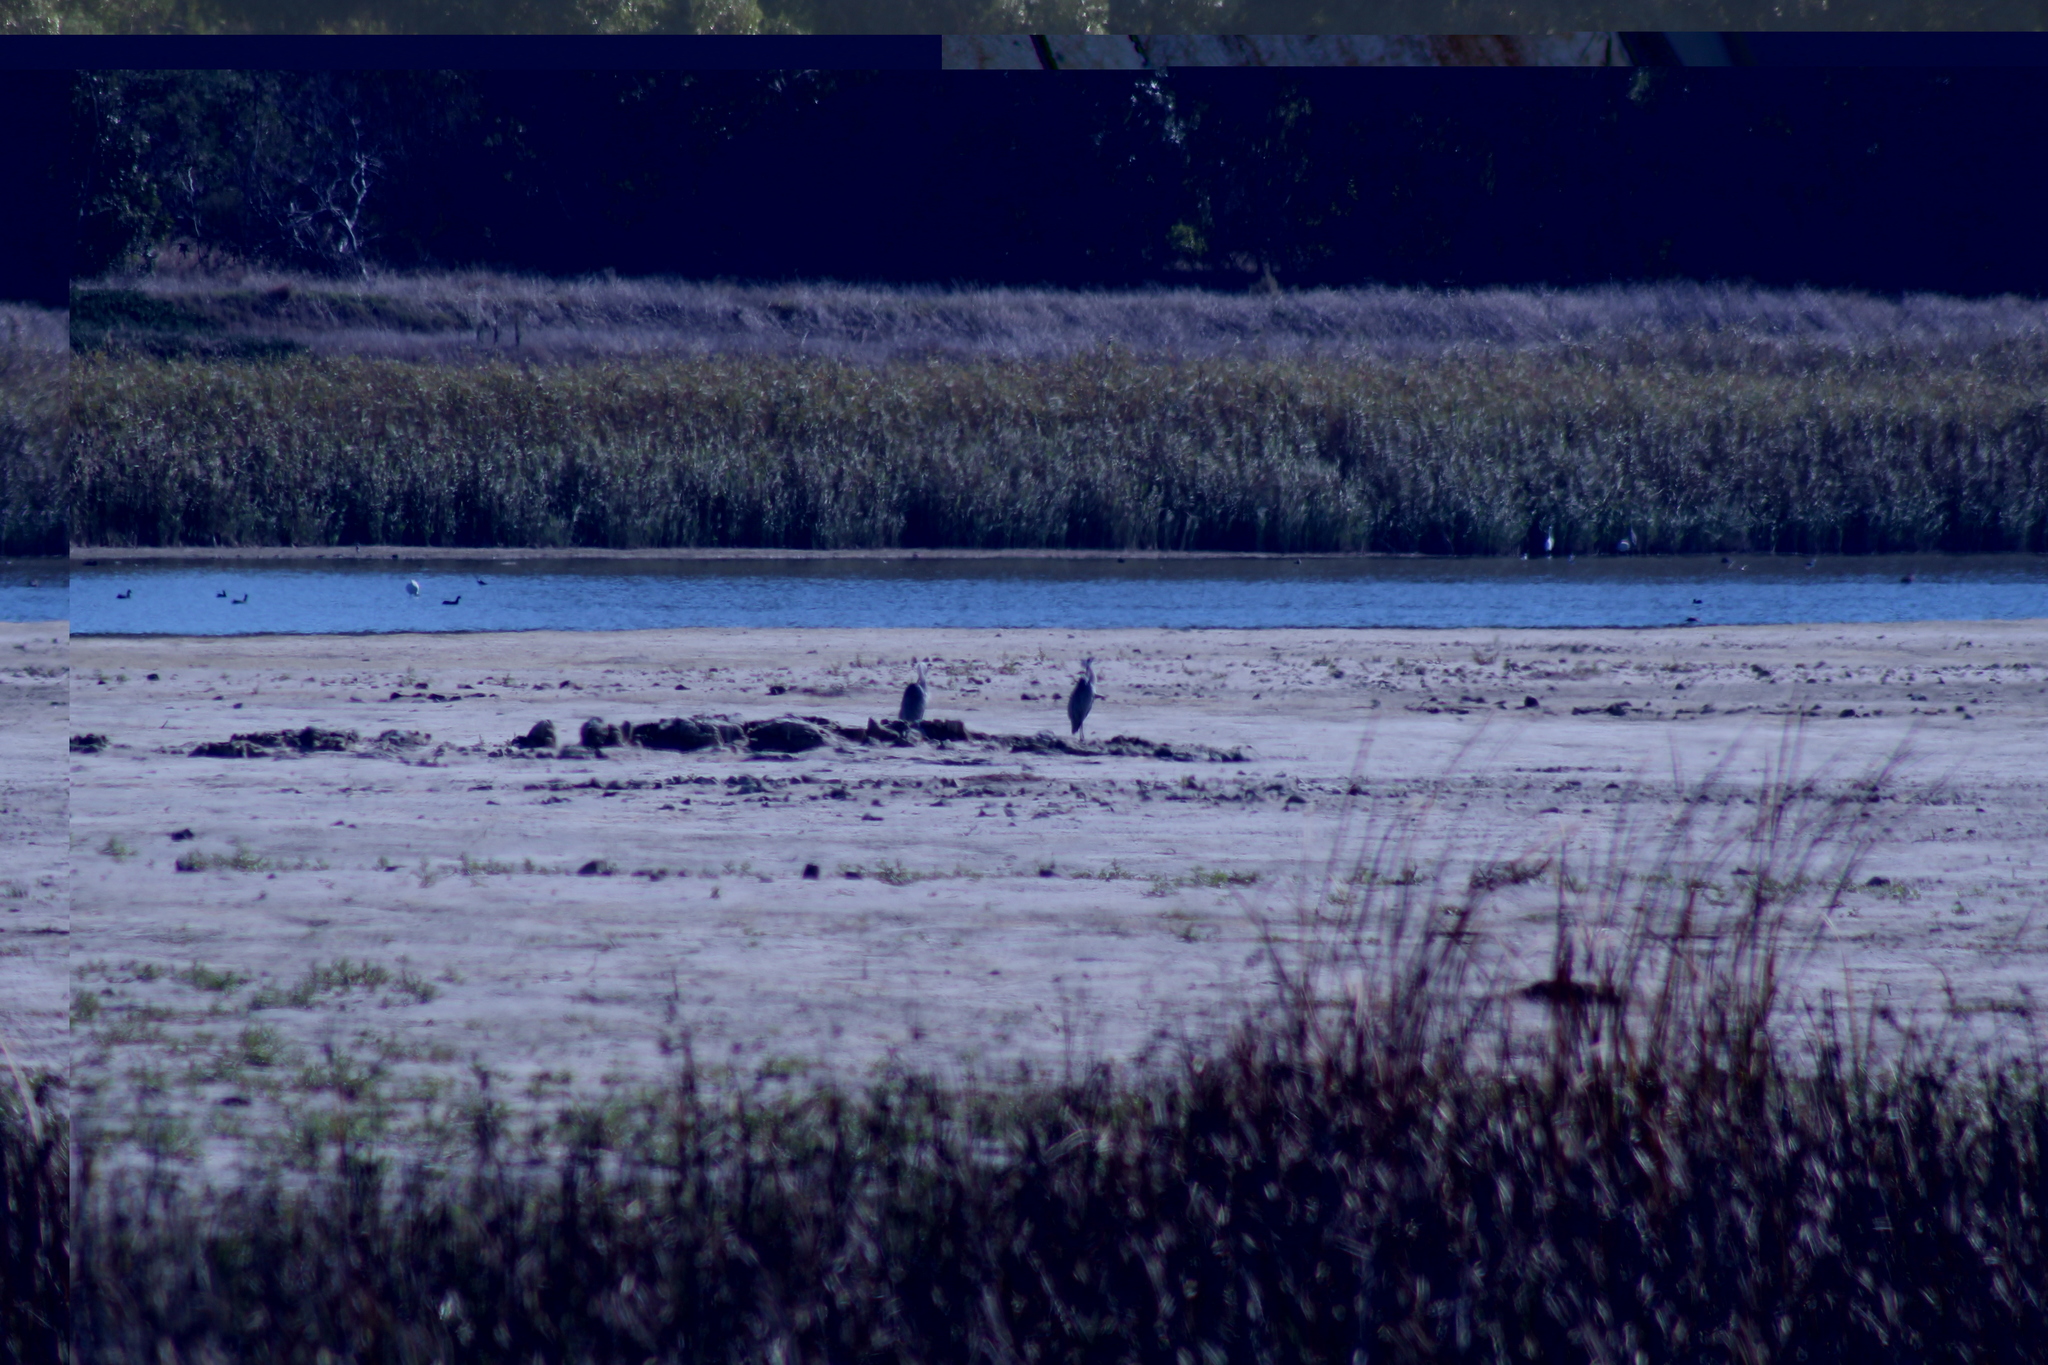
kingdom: Animalia
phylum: Chordata
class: Aves
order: Pelecaniformes
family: Ardeidae
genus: Ardea
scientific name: Ardea cinerea
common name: Grey heron
